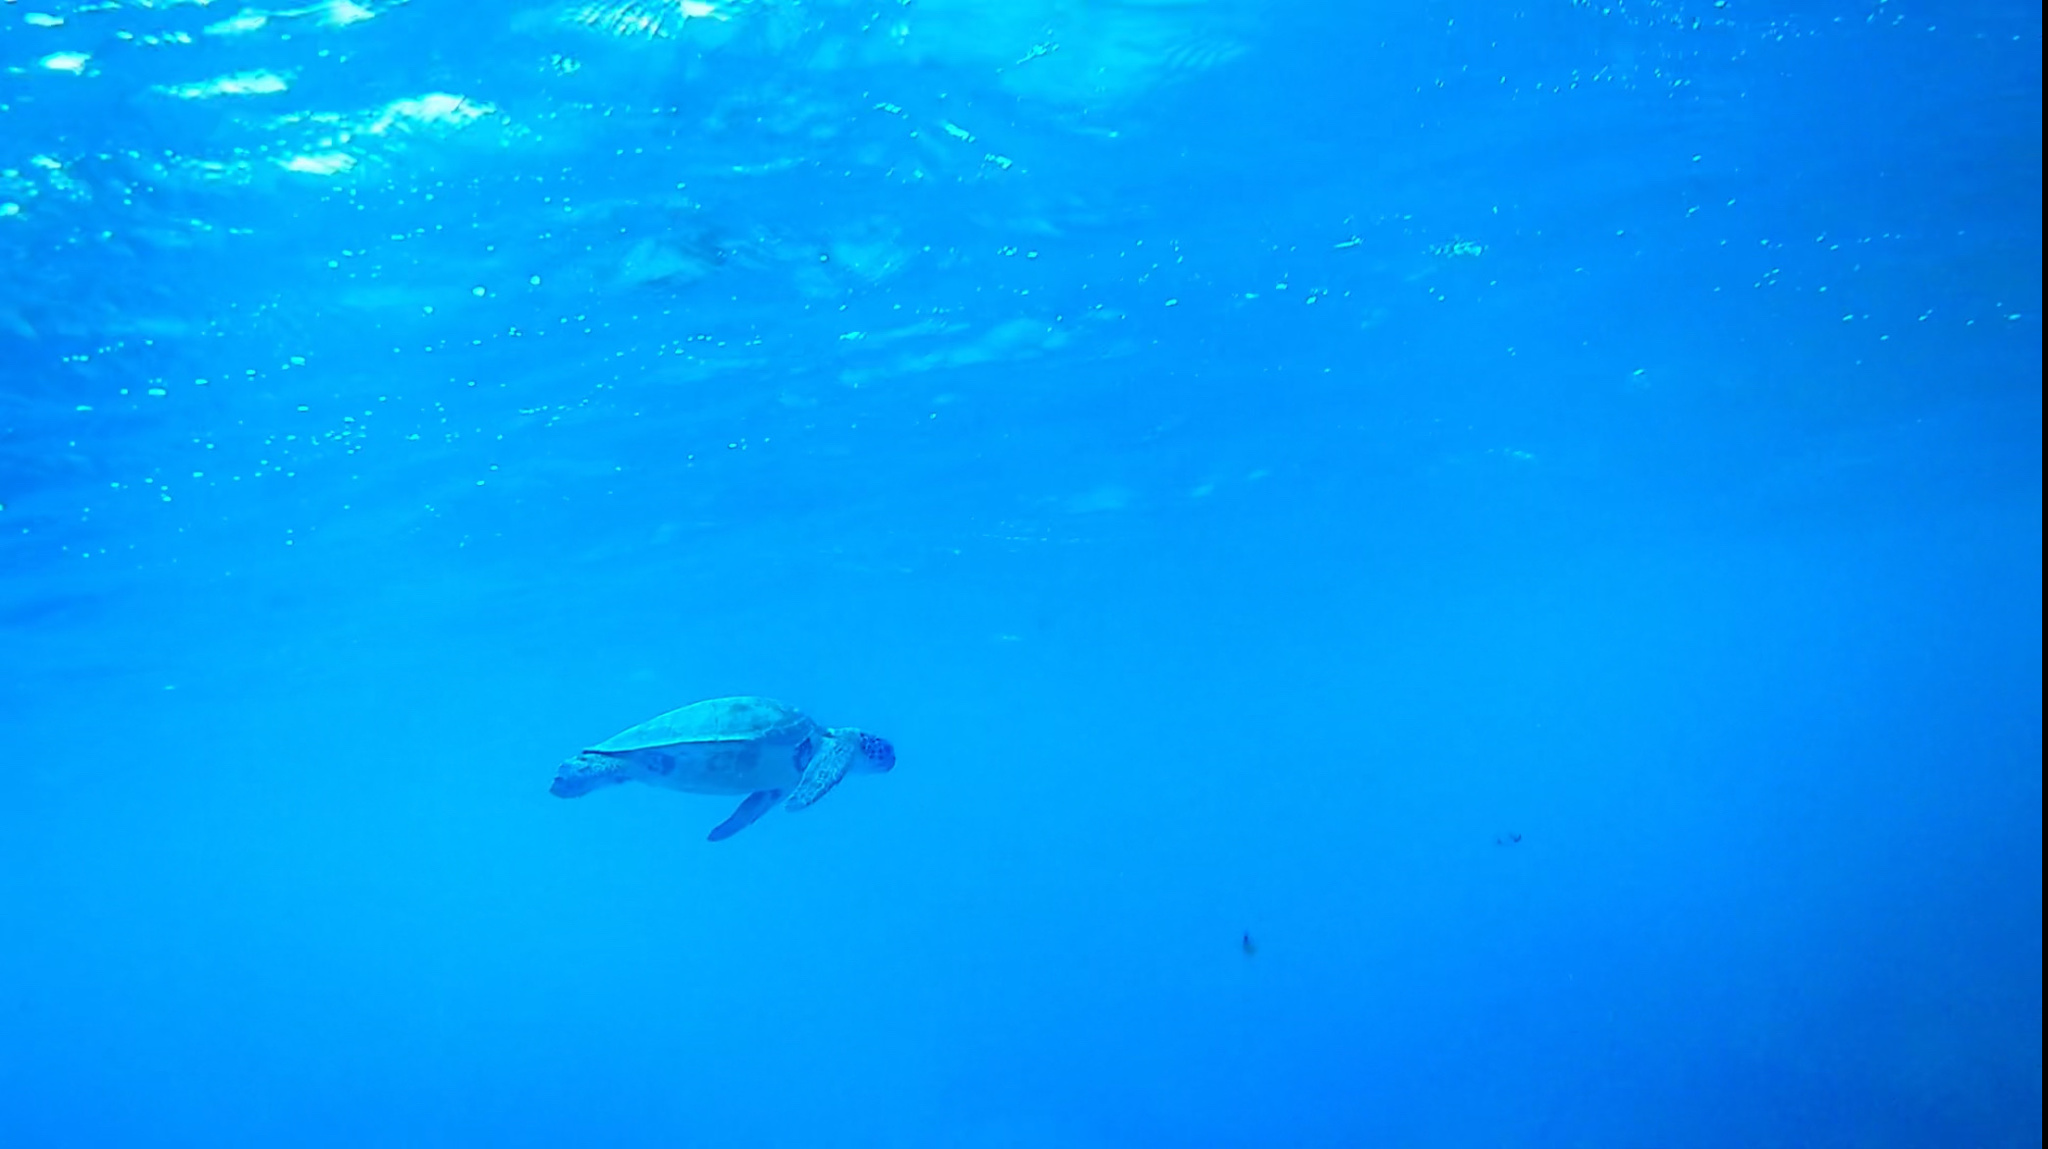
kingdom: Animalia
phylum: Chordata
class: Testudines
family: Cheloniidae
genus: Chelonia
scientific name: Chelonia mydas
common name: Green turtle
